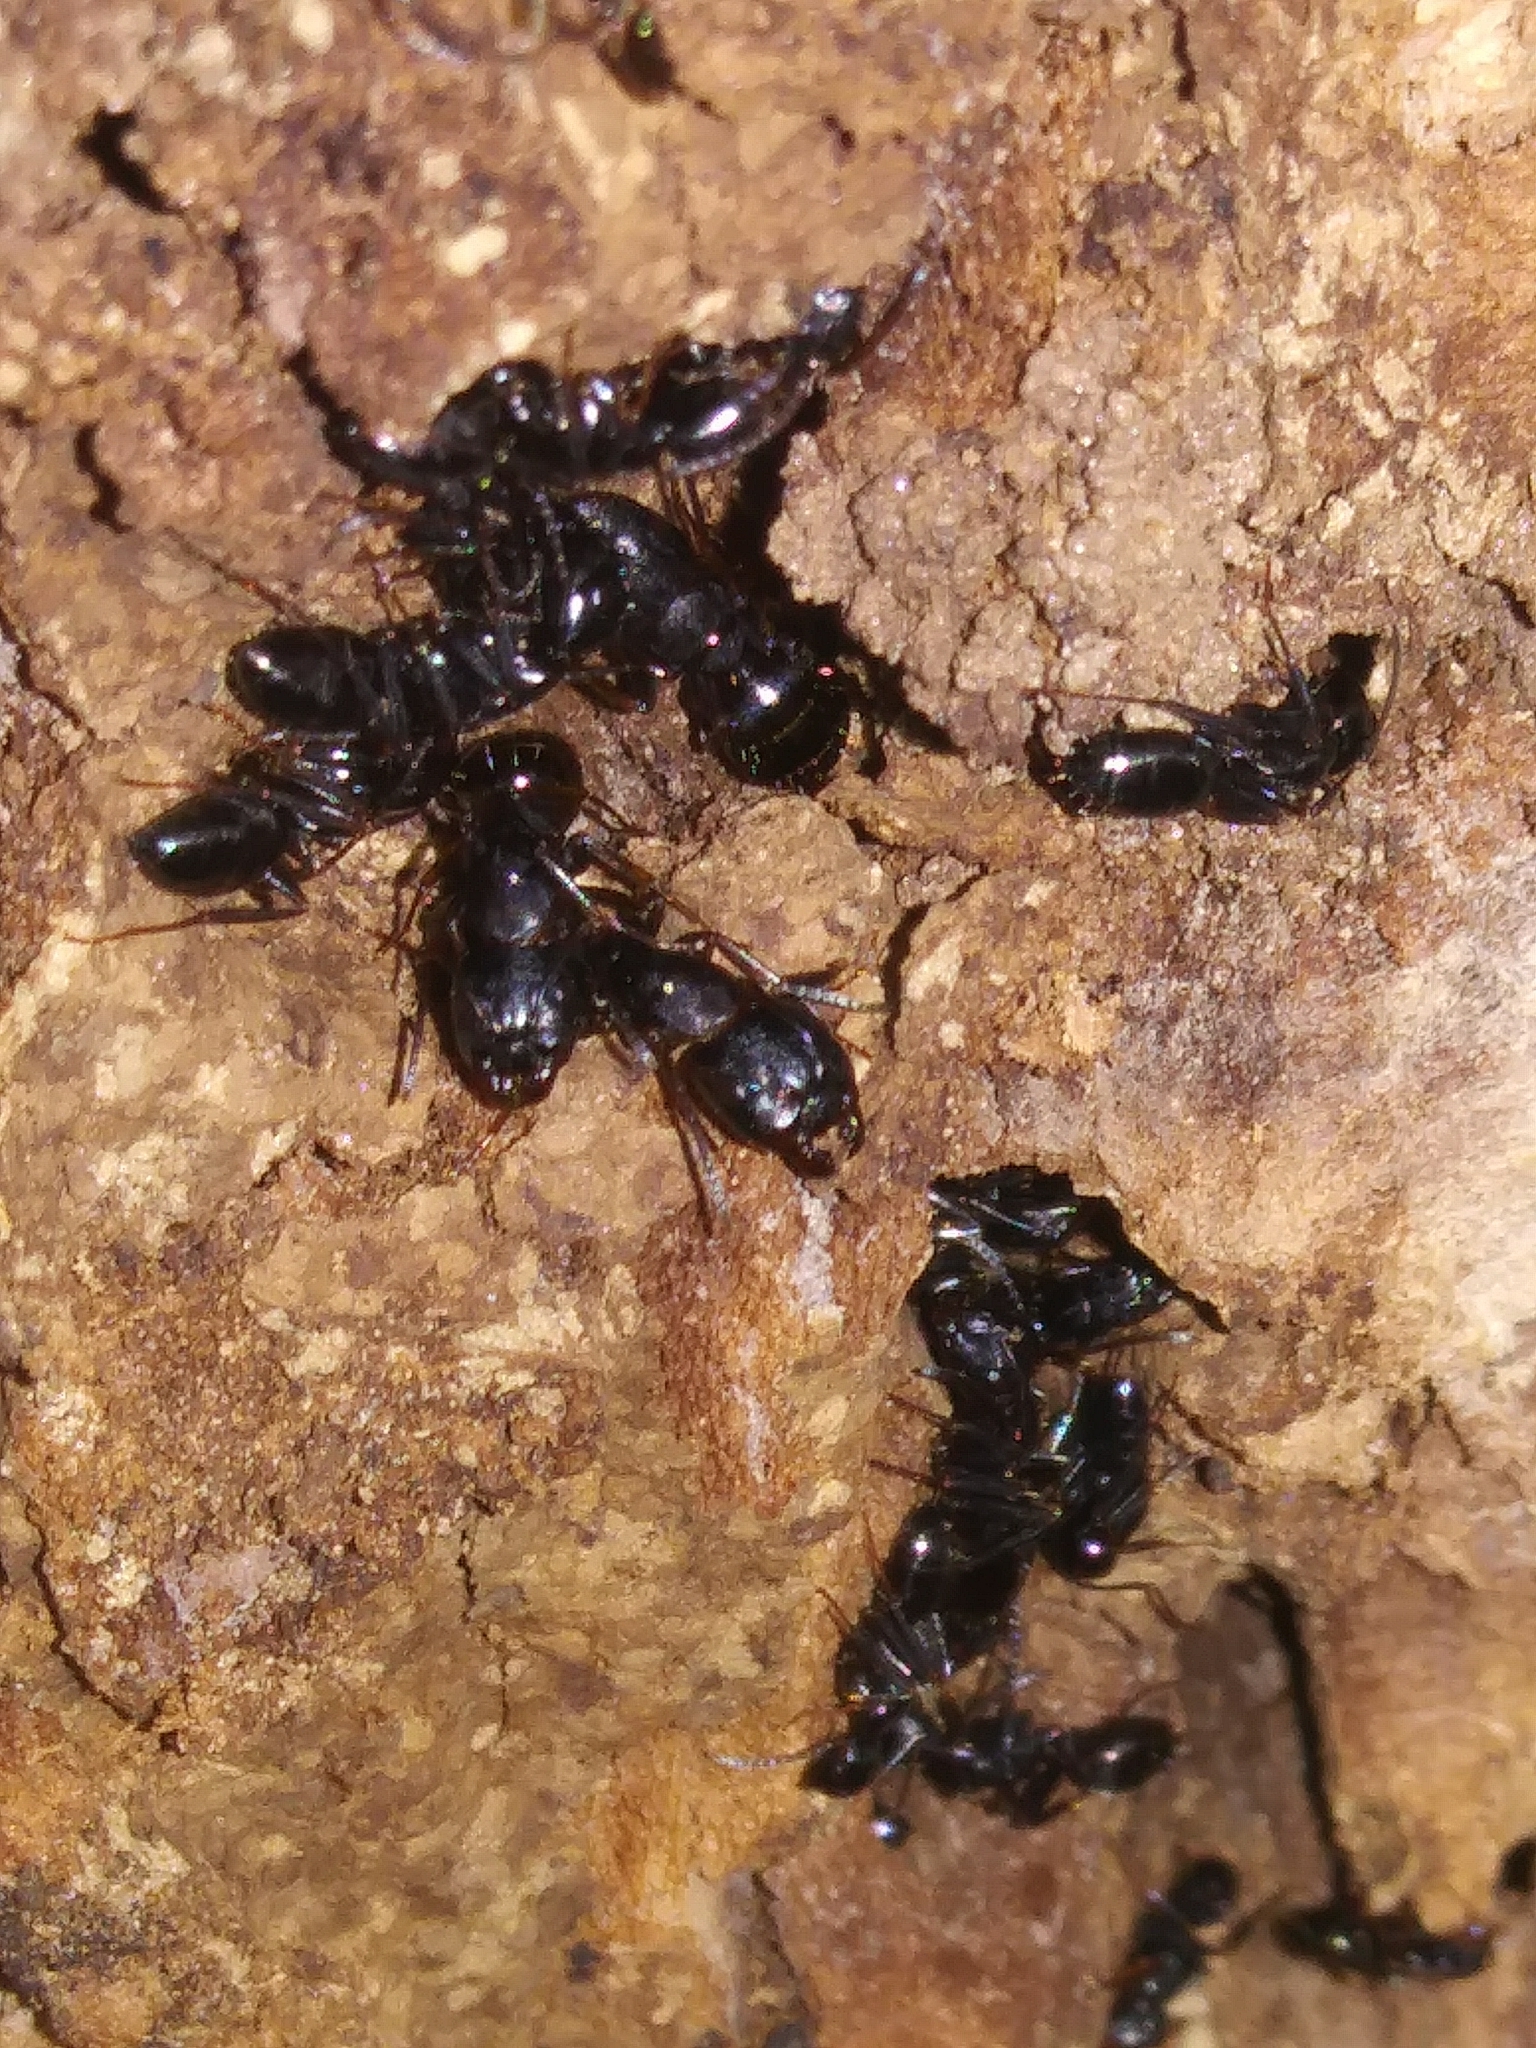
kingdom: Animalia
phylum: Arthropoda
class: Insecta
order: Hymenoptera
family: Formicidae
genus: Camponotus
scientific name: Camponotus pennsylvanicus
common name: Black carpenter ant
